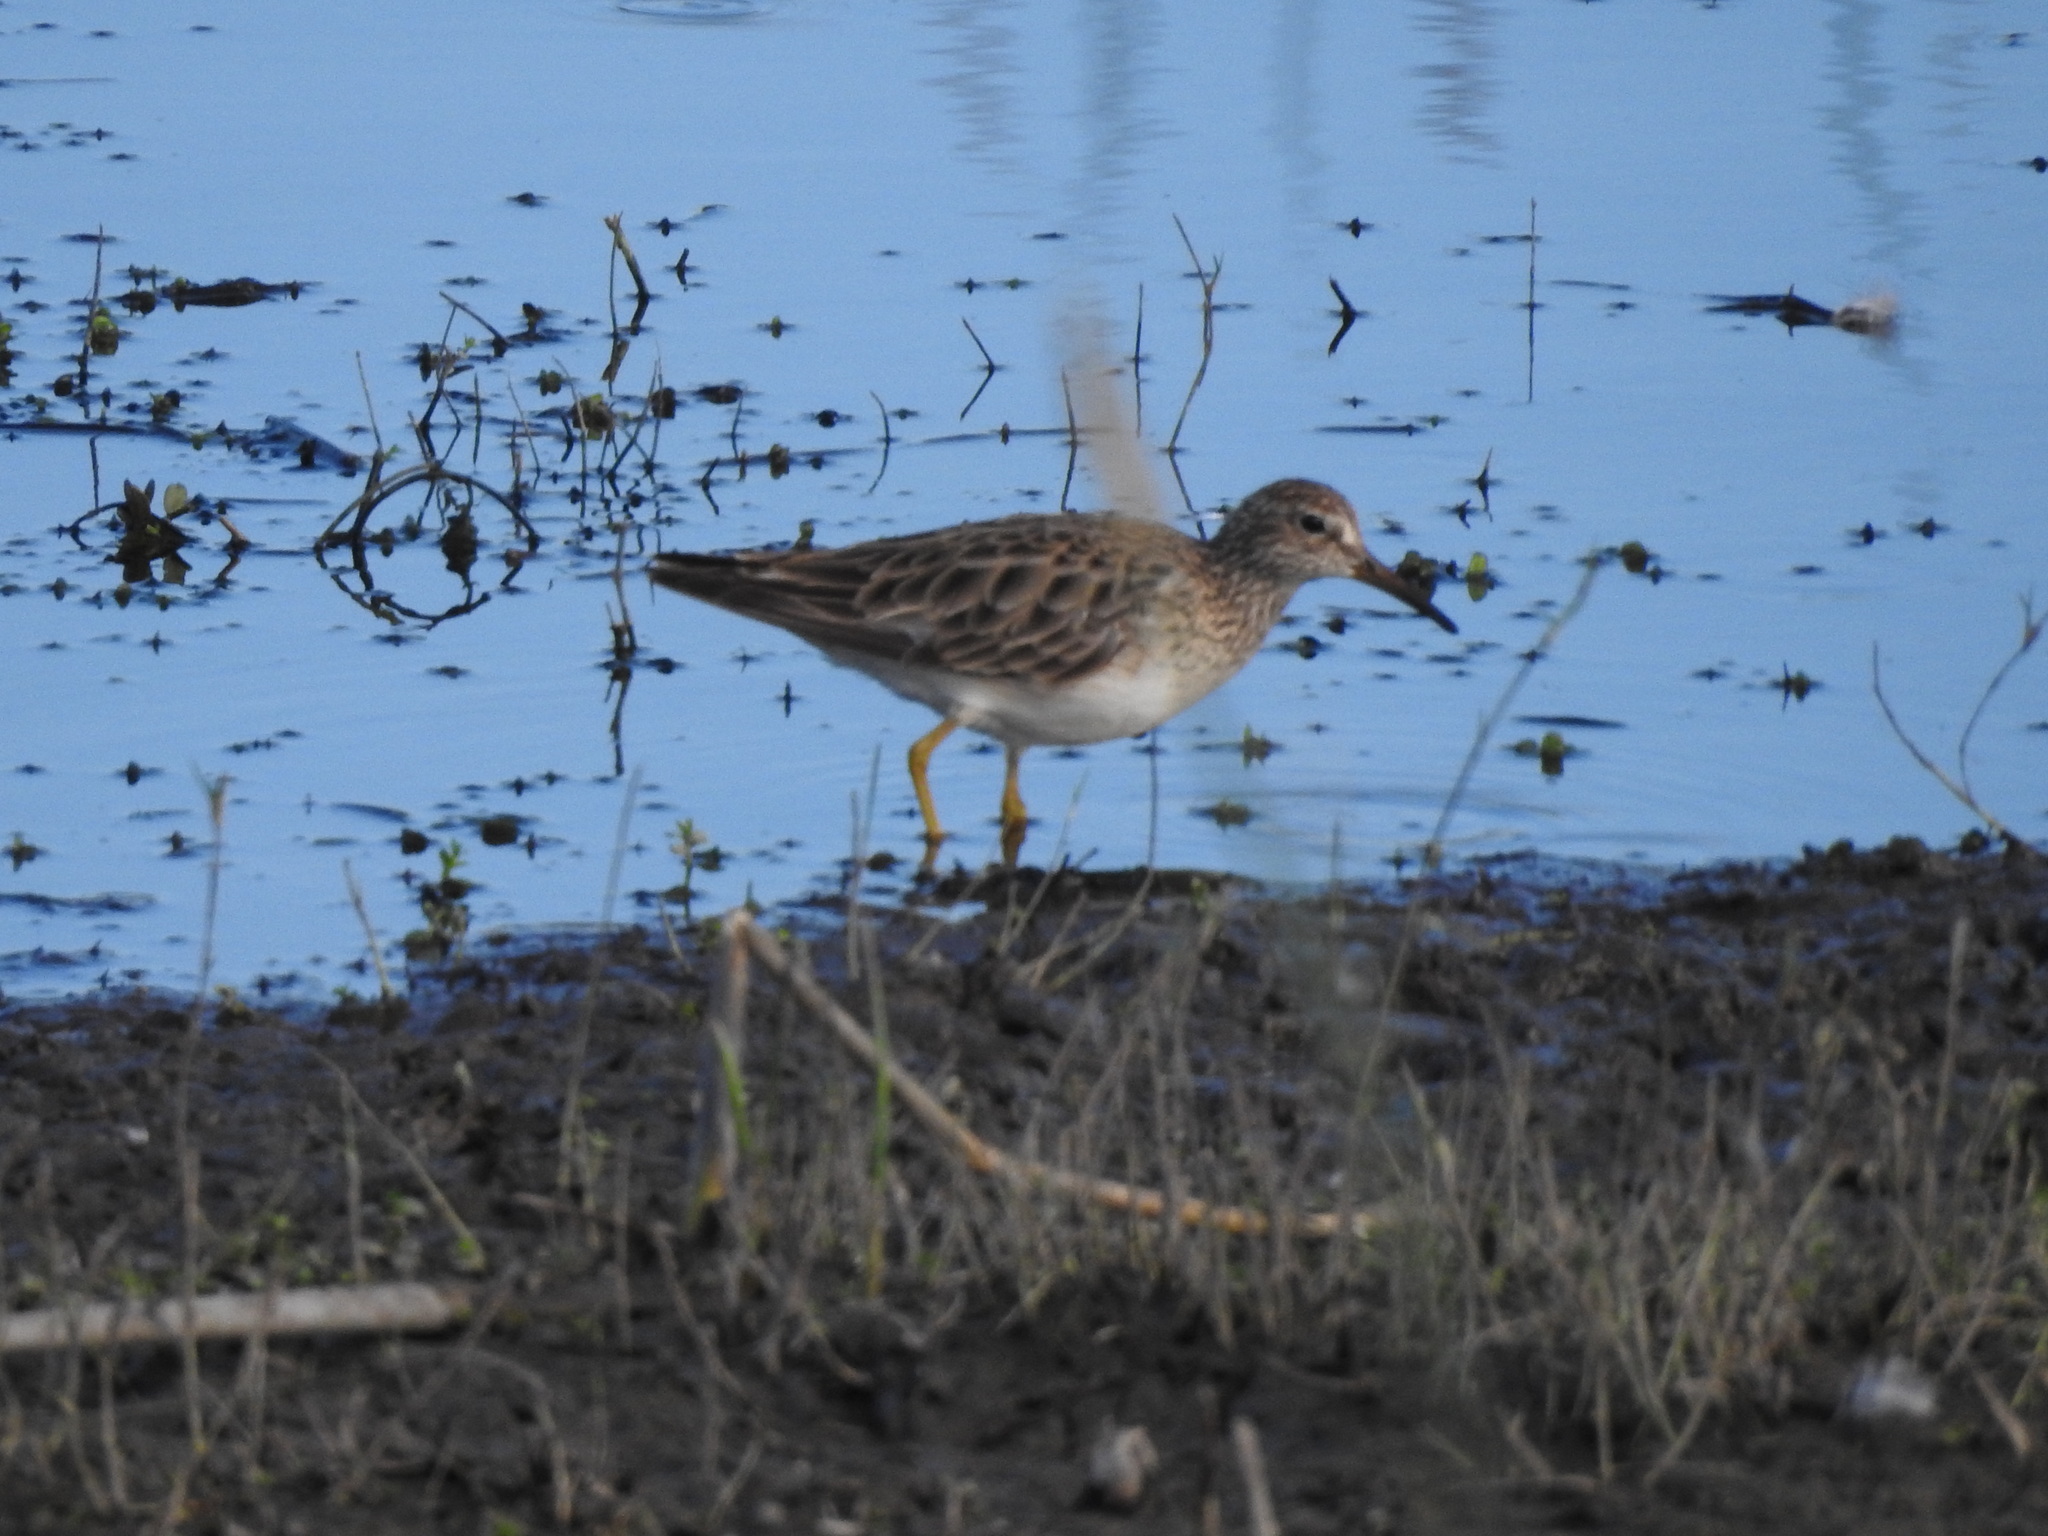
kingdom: Animalia
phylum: Chordata
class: Aves
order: Charadriiformes
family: Scolopacidae
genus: Calidris
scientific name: Calidris melanotos
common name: Pectoral sandpiper
